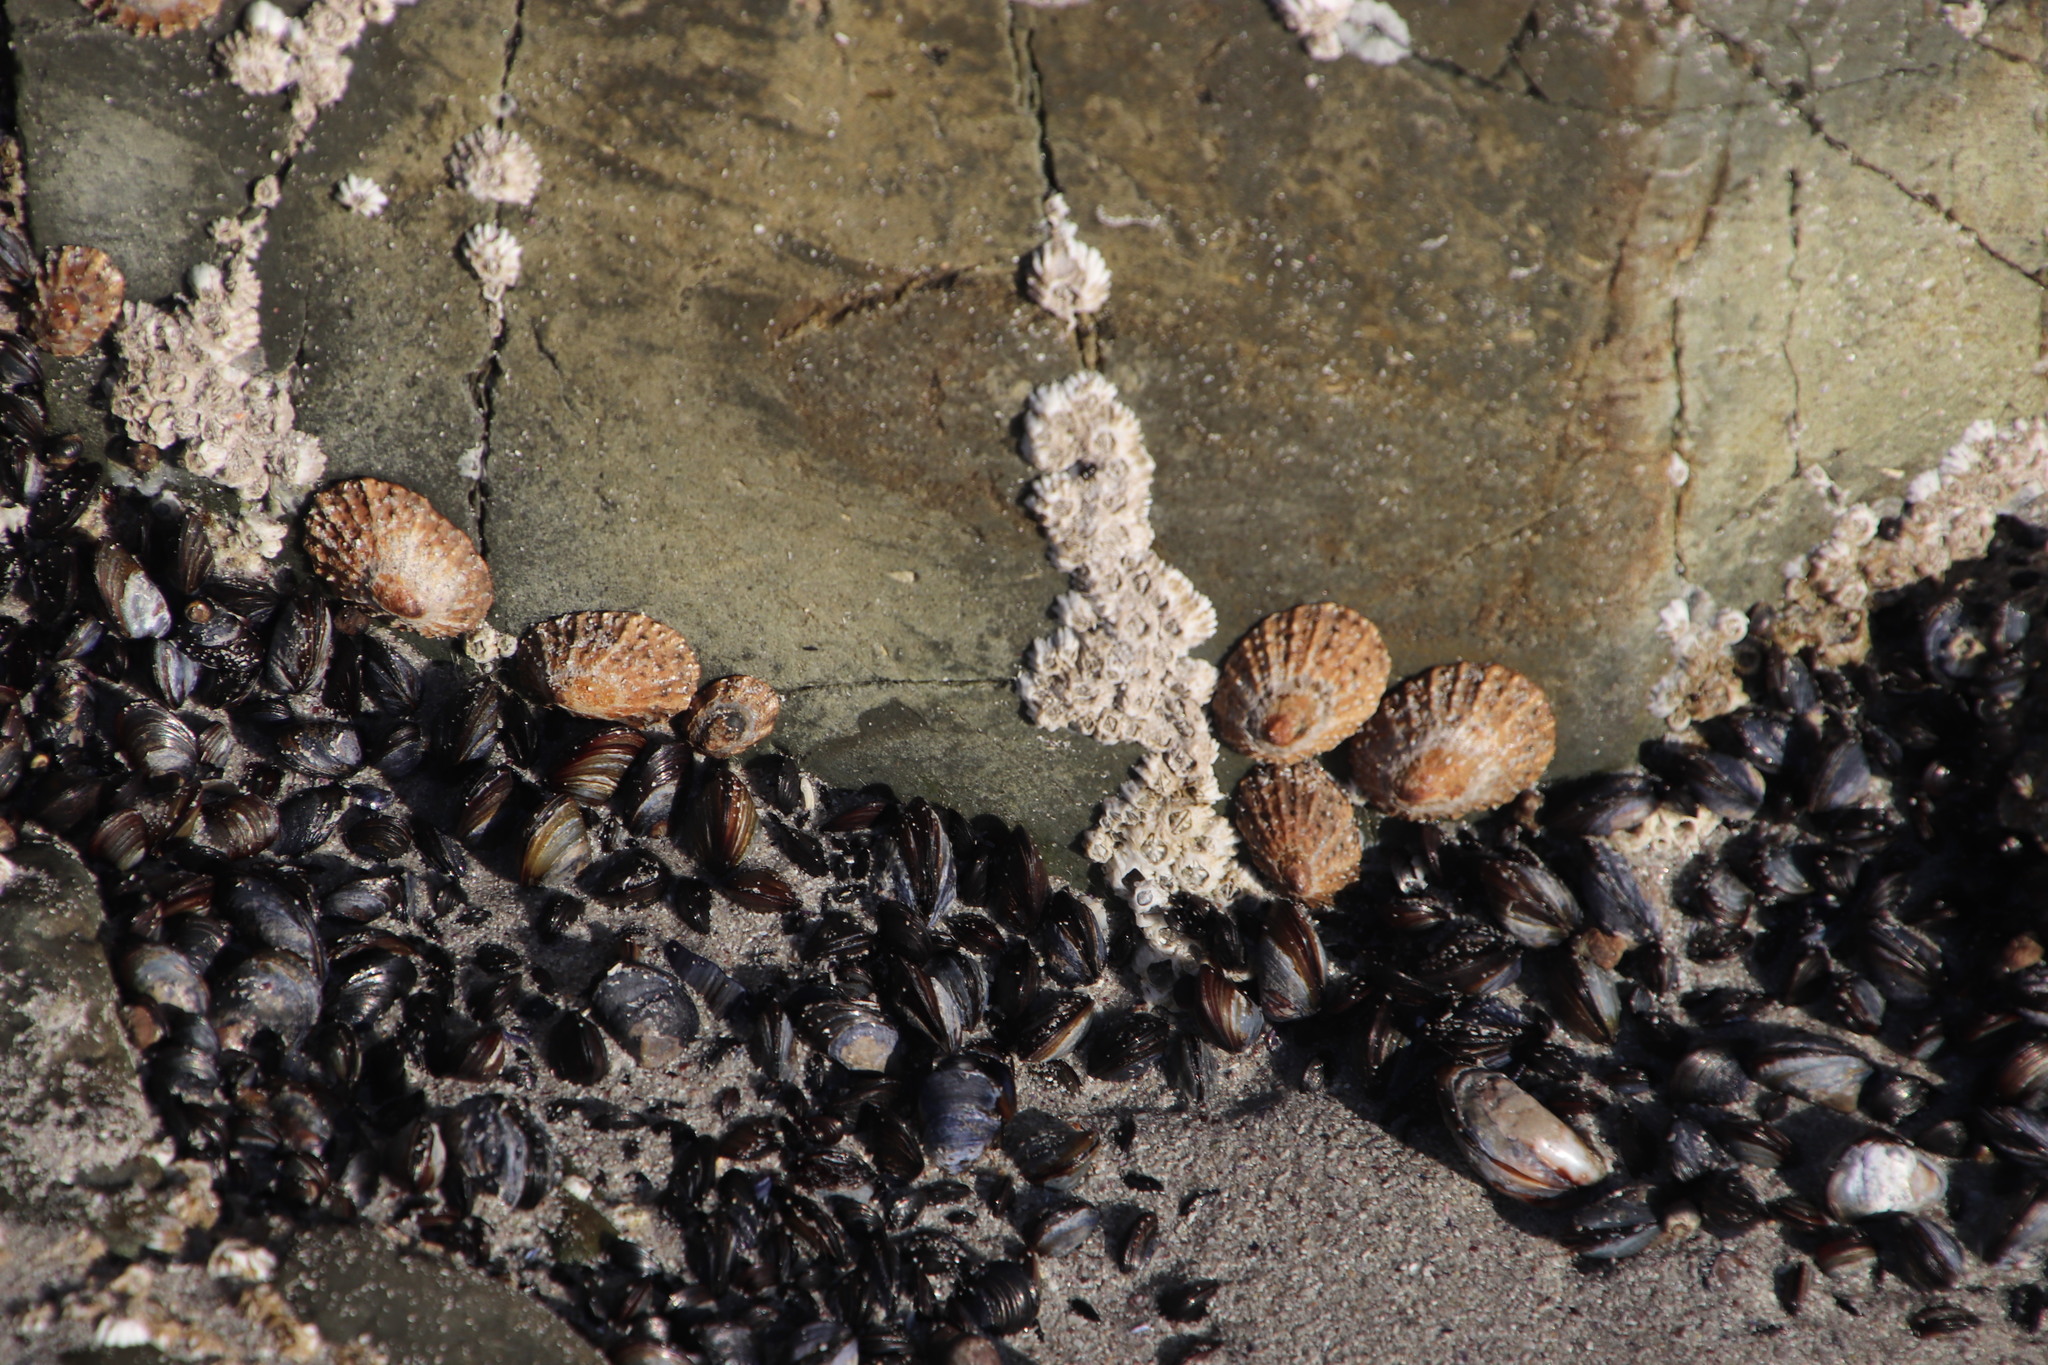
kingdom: Animalia
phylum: Mollusca
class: Gastropoda
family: Patellidae
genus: Scutellastra
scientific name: Scutellastra granularis
